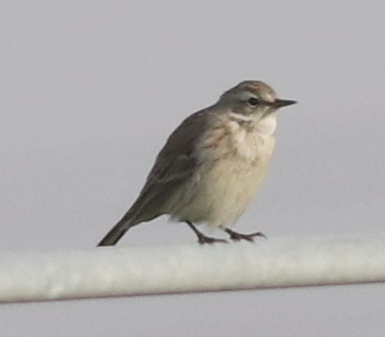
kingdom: Animalia
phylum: Chordata
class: Aves
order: Passeriformes
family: Motacillidae
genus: Anthus
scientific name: Anthus spinoletta
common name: Water pipit
